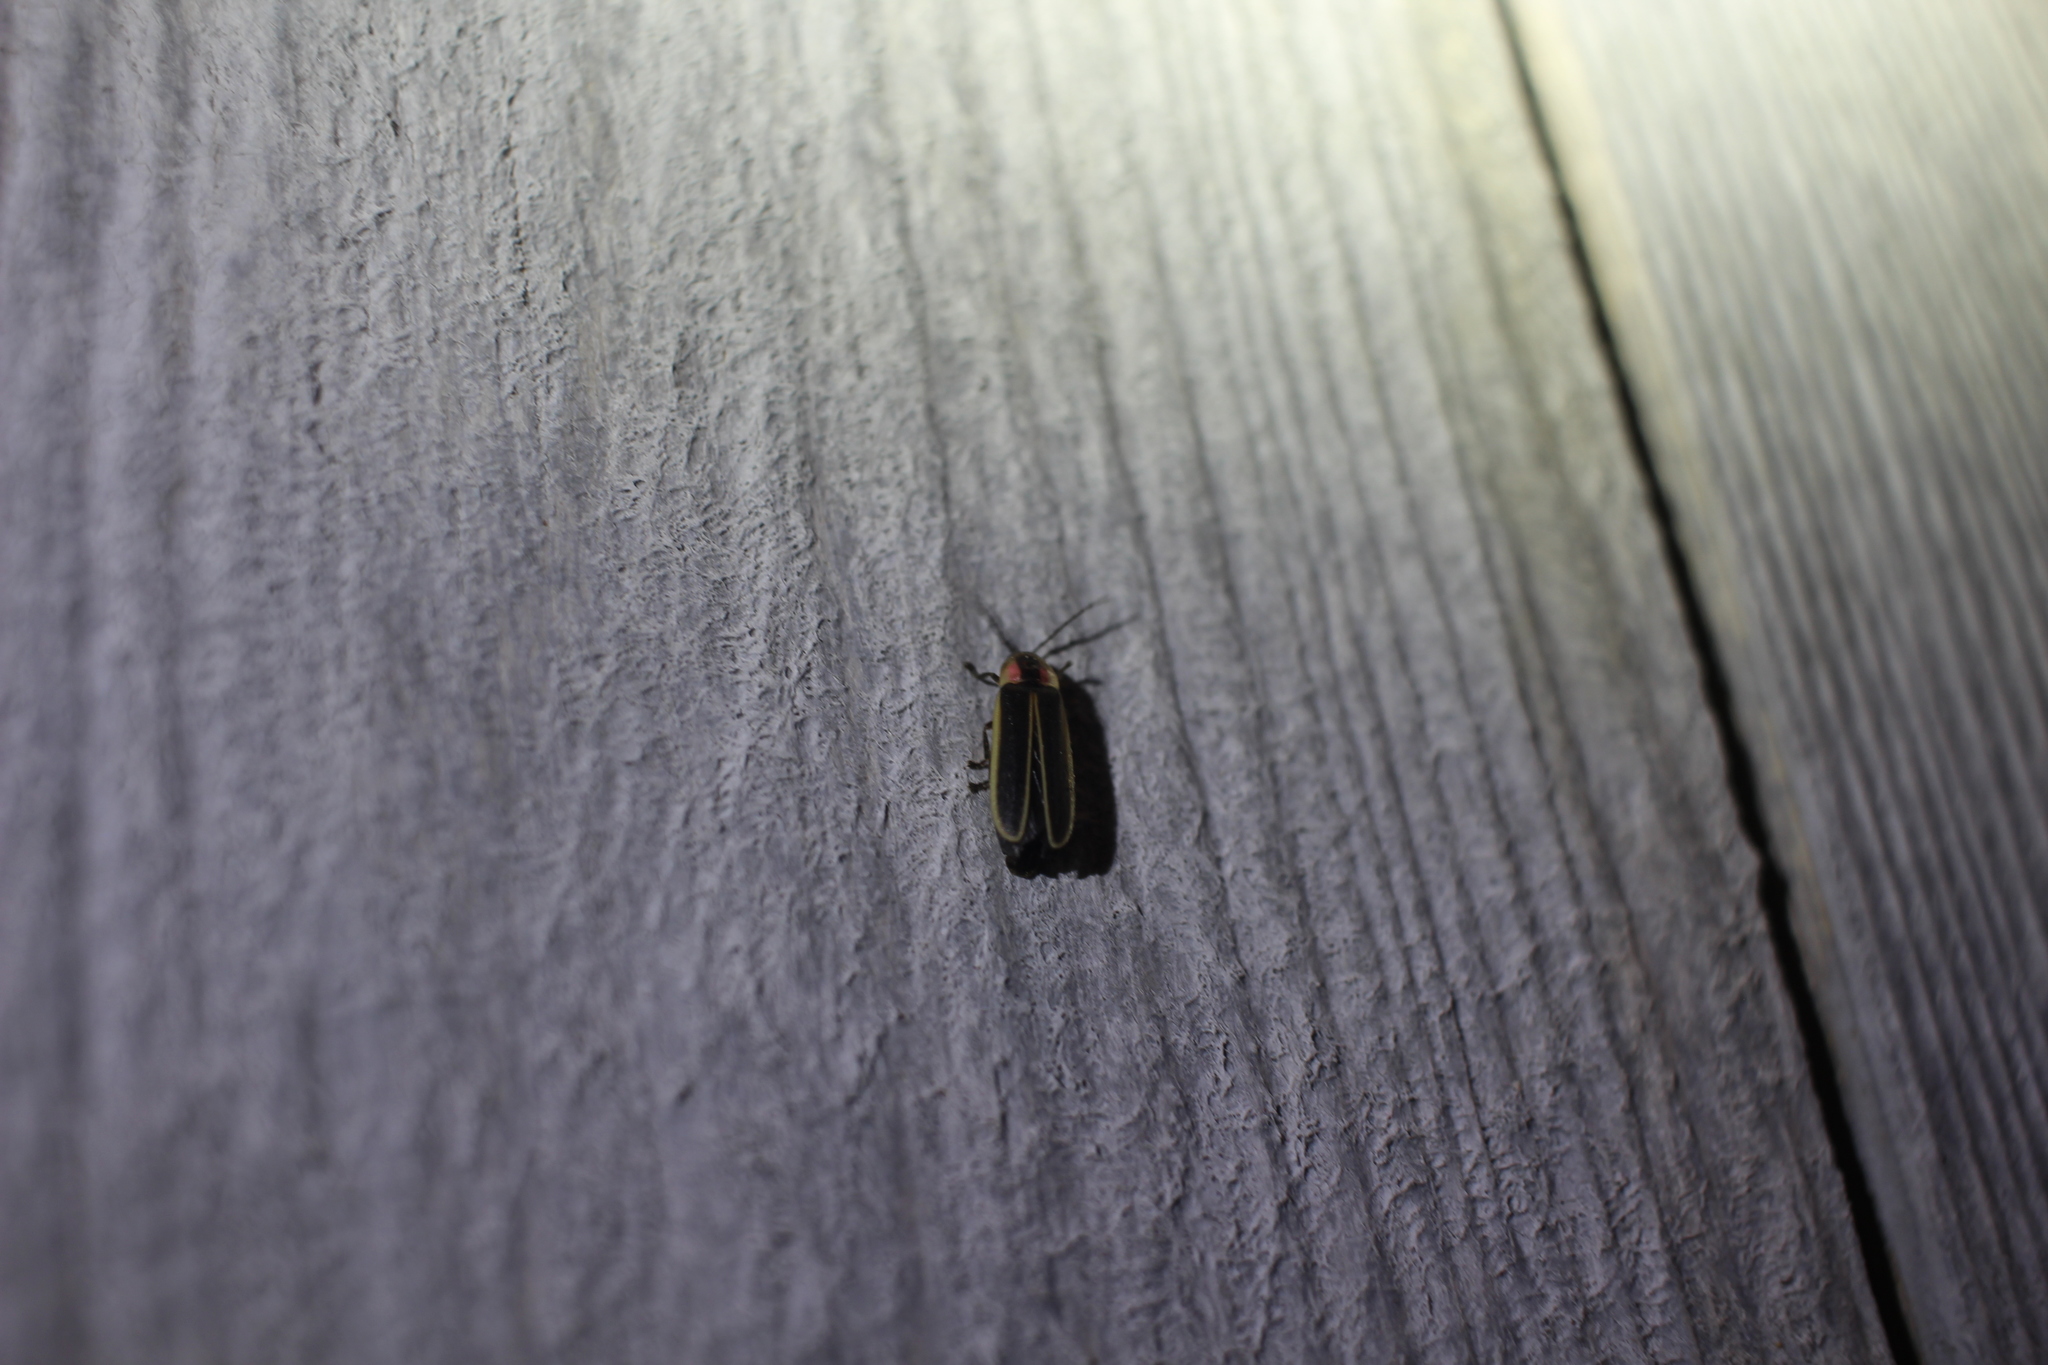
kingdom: Animalia
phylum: Arthropoda
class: Insecta
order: Coleoptera
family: Lampyridae
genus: Photinus
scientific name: Photinus
